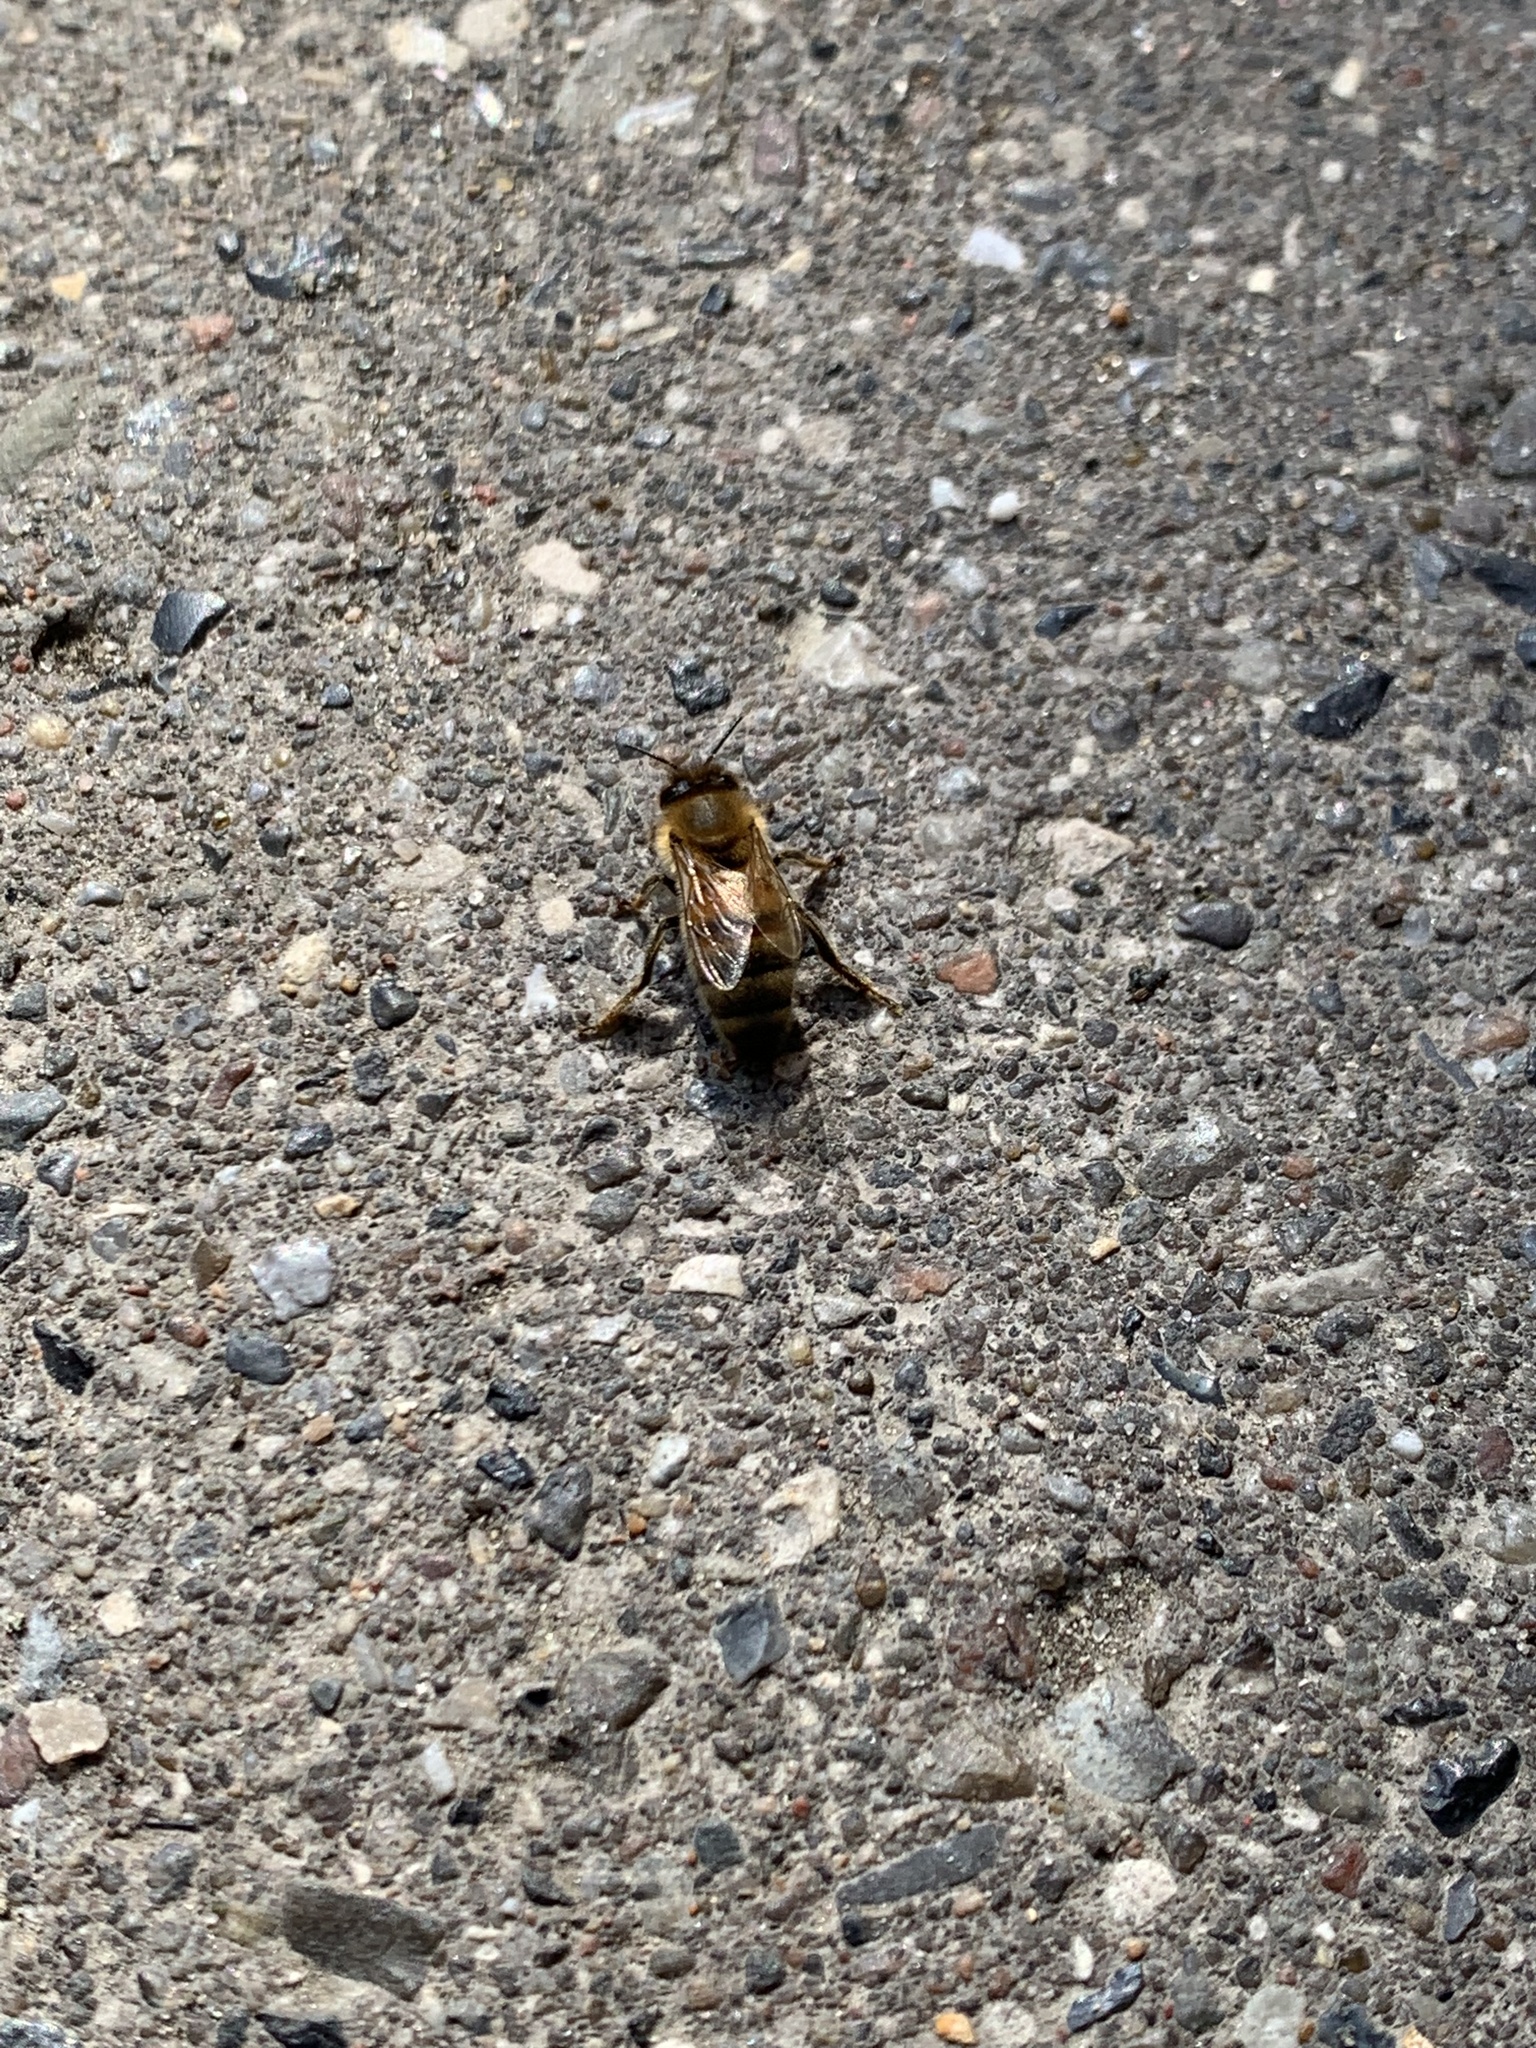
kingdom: Animalia
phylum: Arthropoda
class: Insecta
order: Hymenoptera
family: Apidae
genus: Apis
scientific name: Apis mellifera
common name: Honey bee
